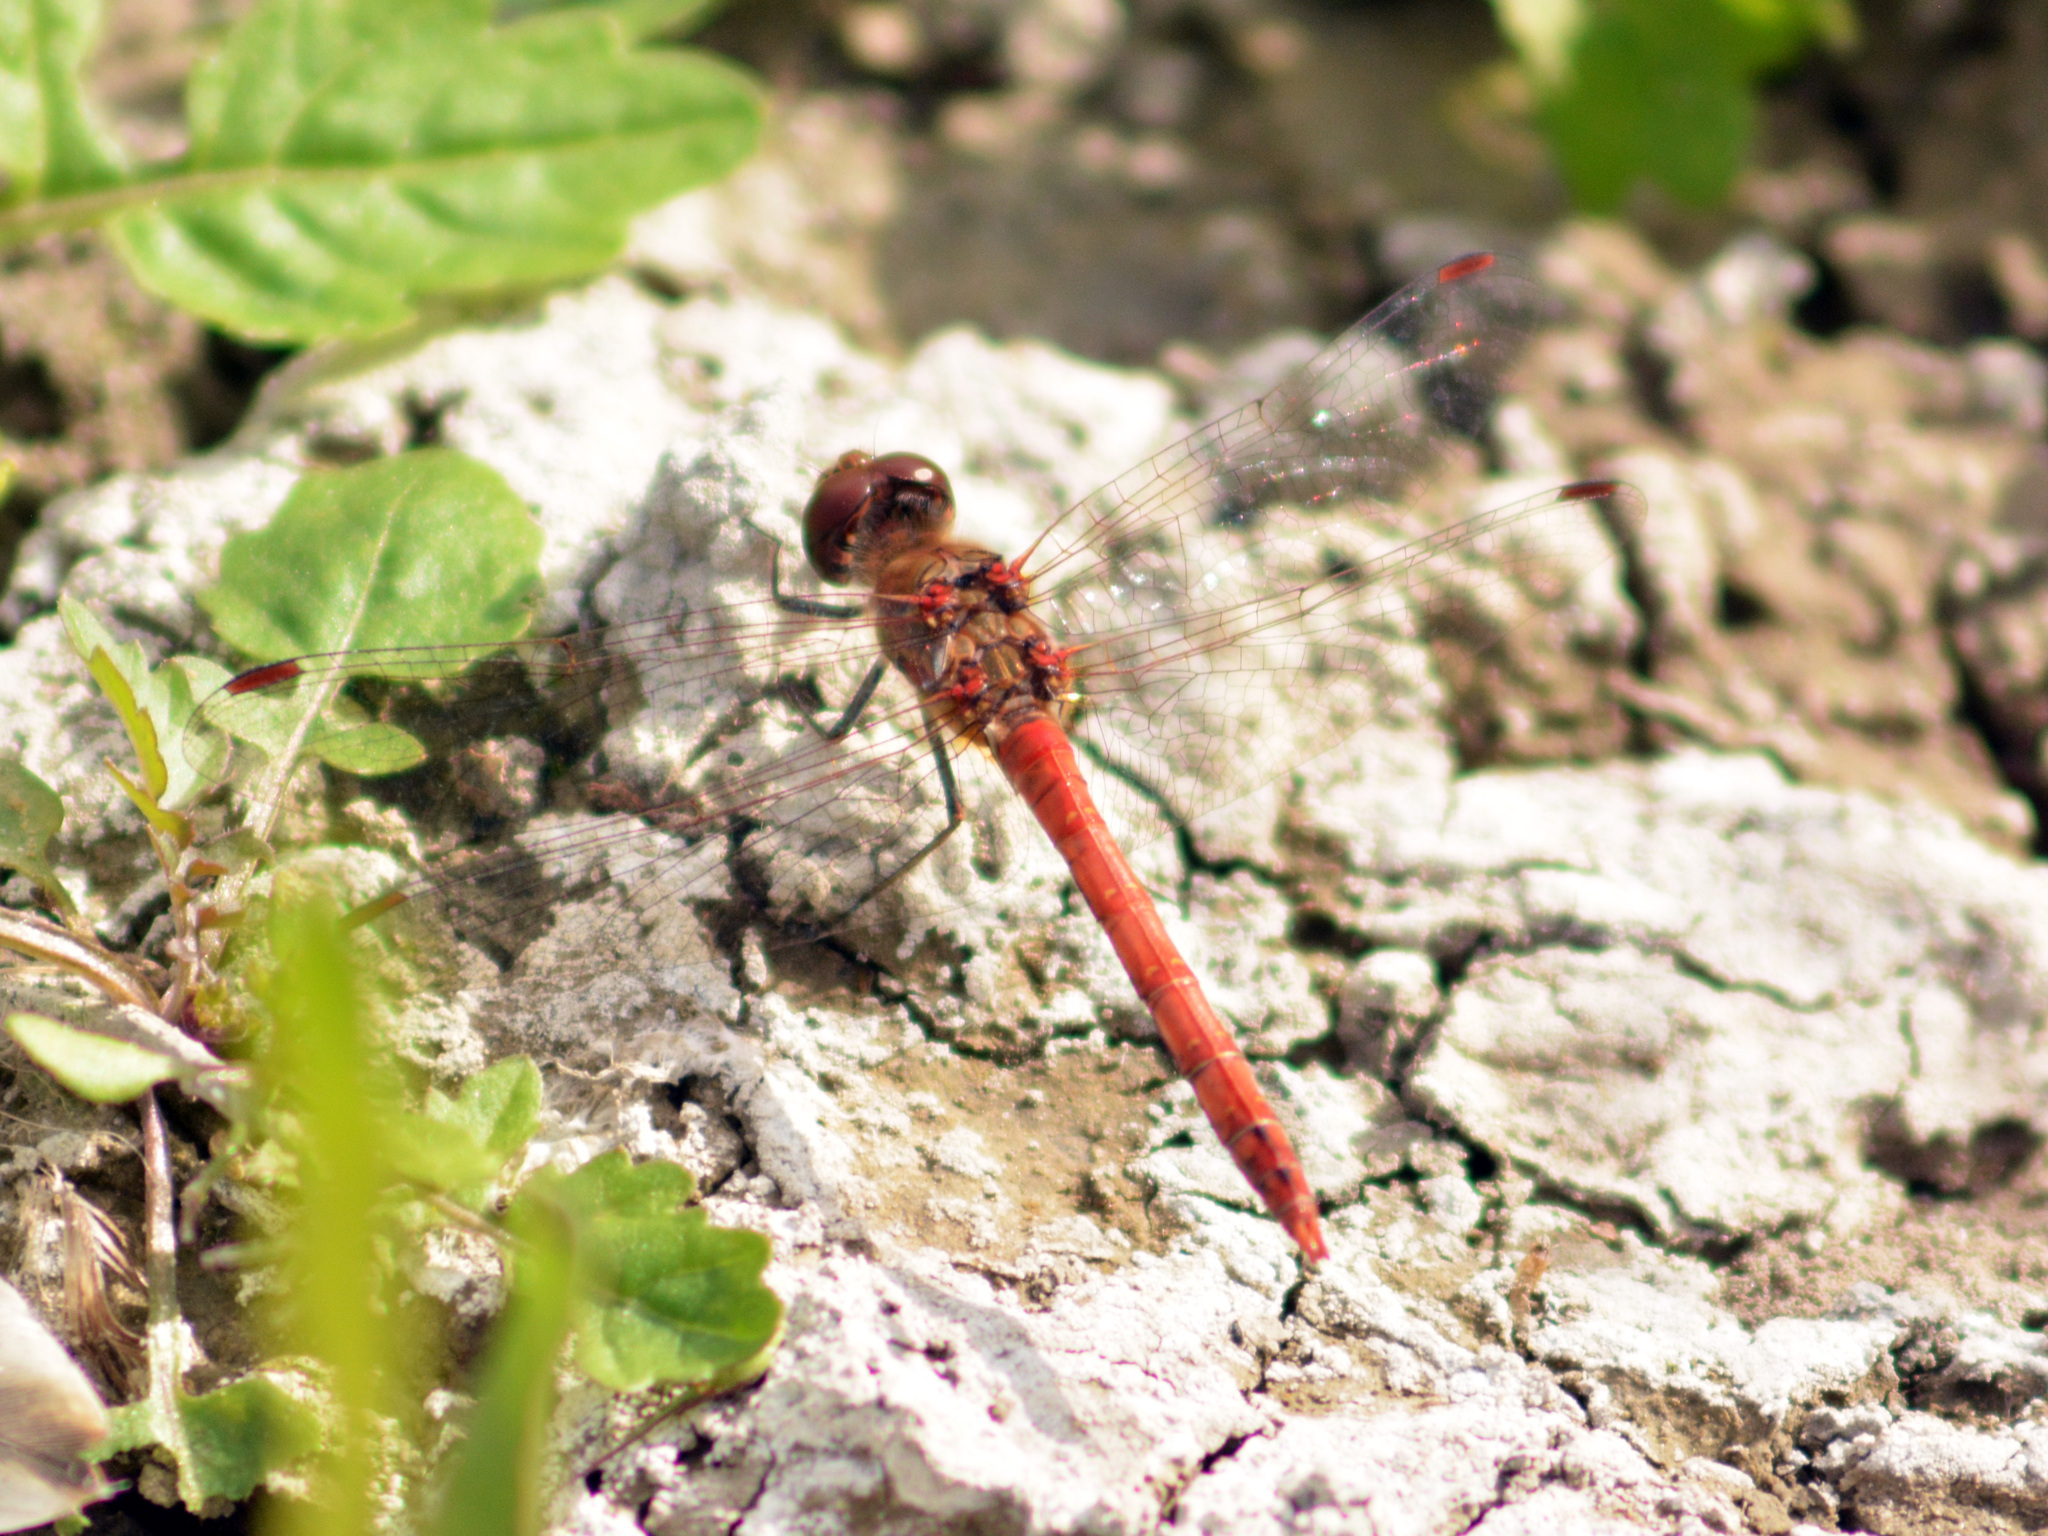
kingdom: Animalia
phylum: Arthropoda
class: Insecta
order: Odonata
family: Libellulidae
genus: Sympetrum
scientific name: Sympetrum striolatum
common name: Common darter
